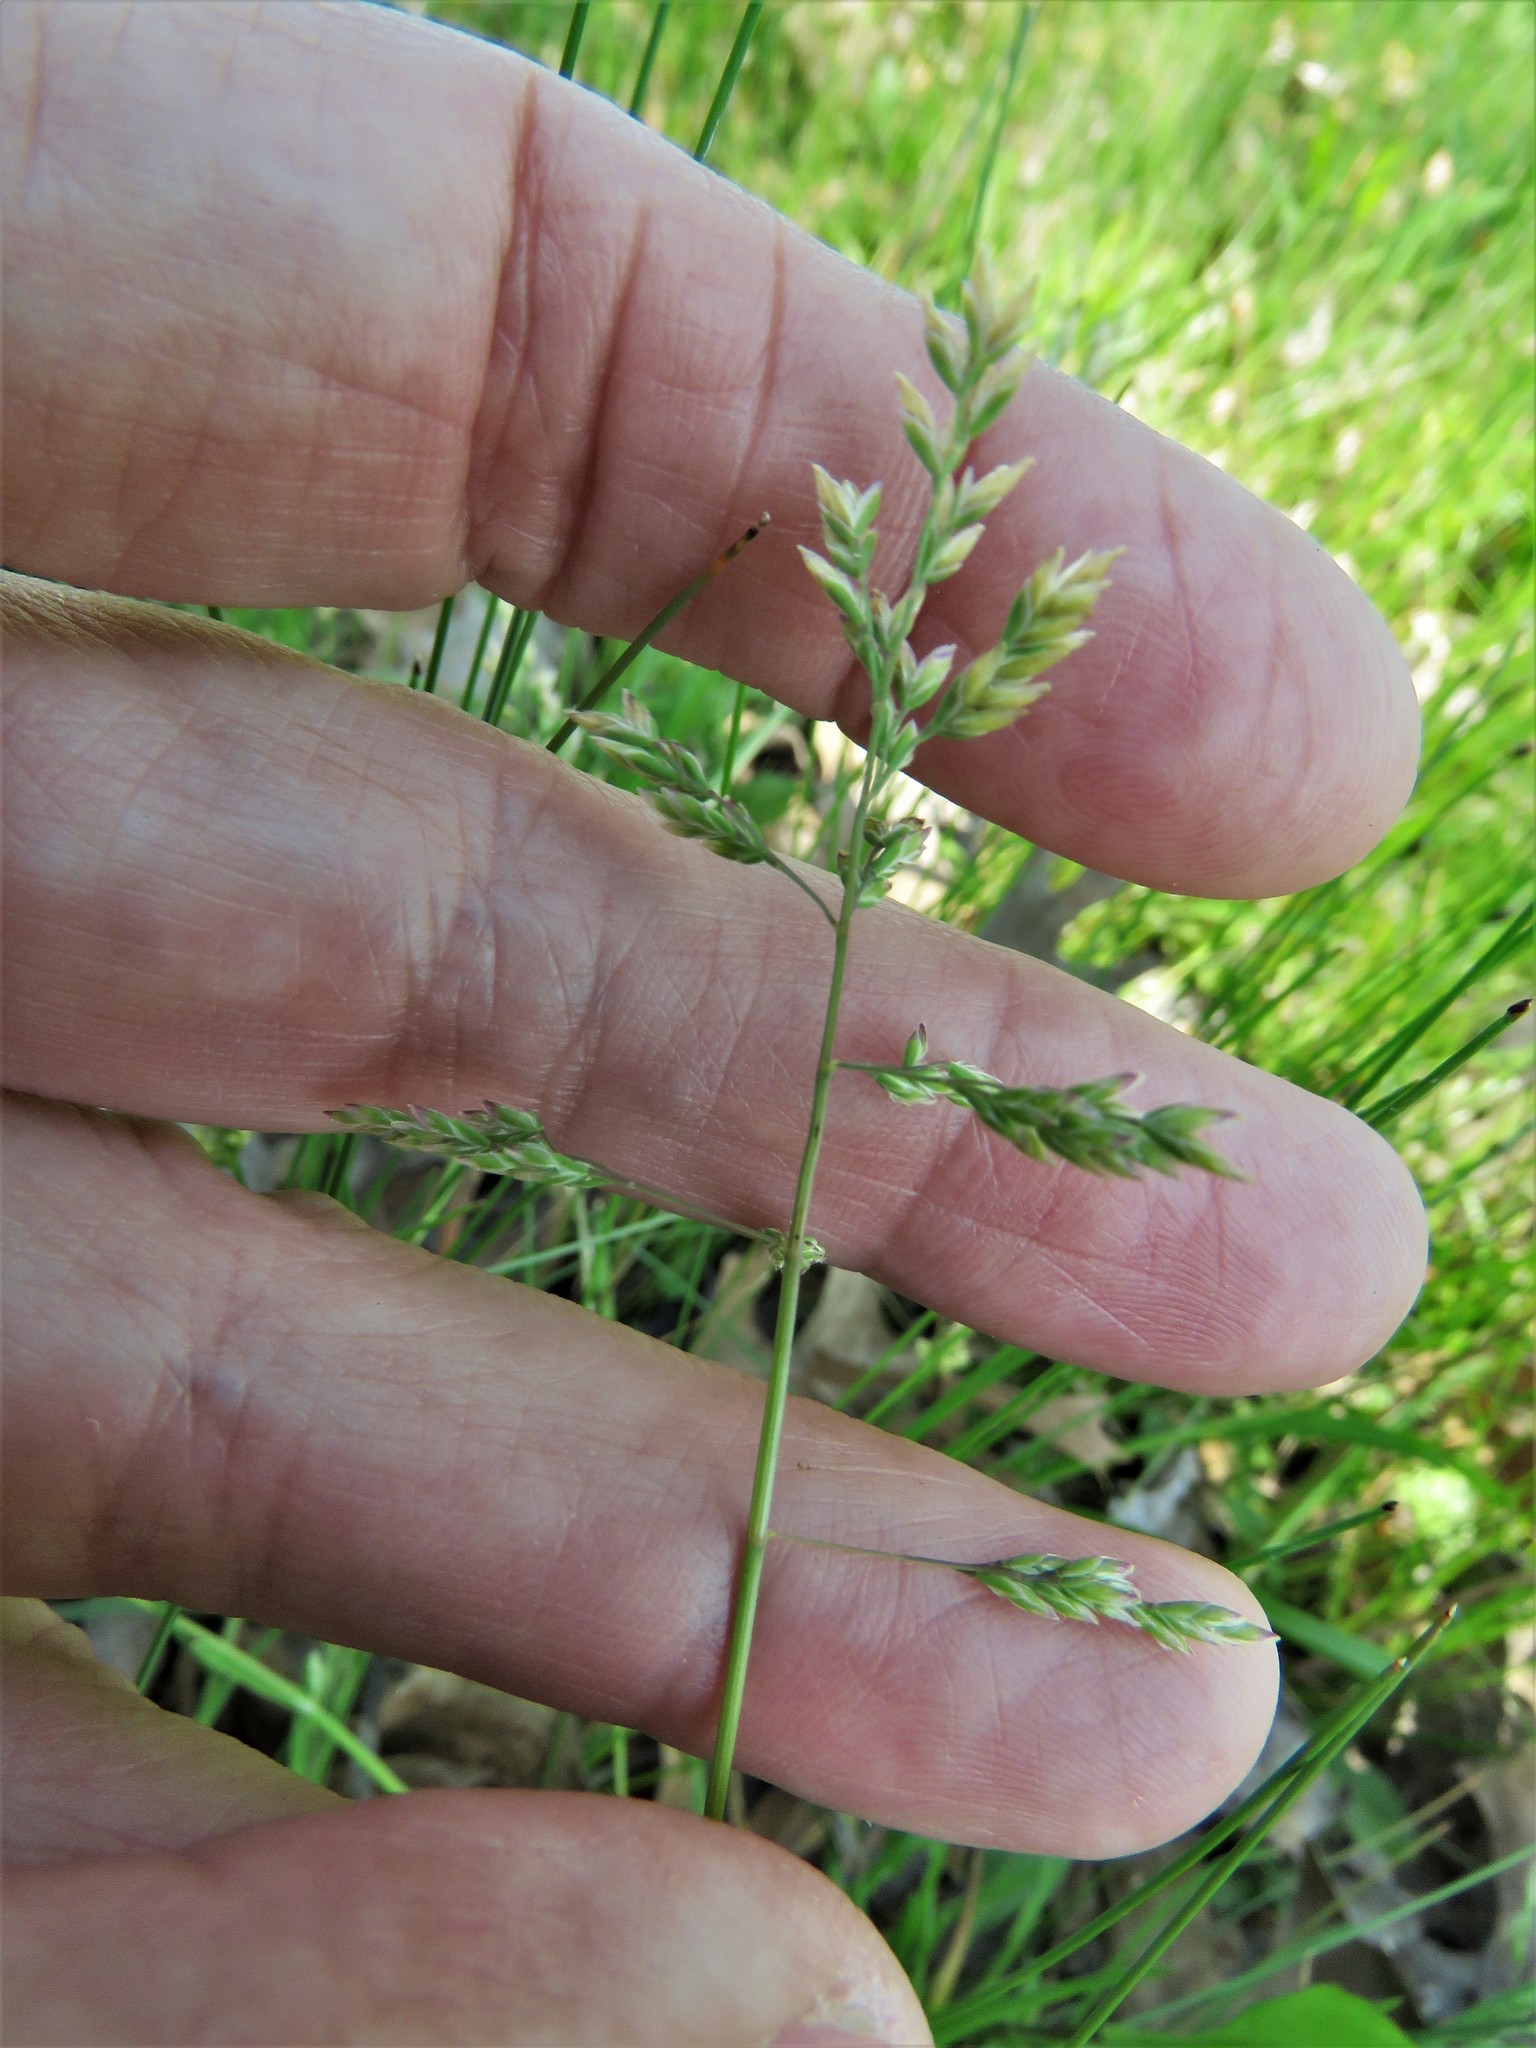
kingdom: Plantae
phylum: Tracheophyta
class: Liliopsida
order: Poales
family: Poaceae
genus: Poa
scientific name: Poa annua
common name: Annual bluegrass
